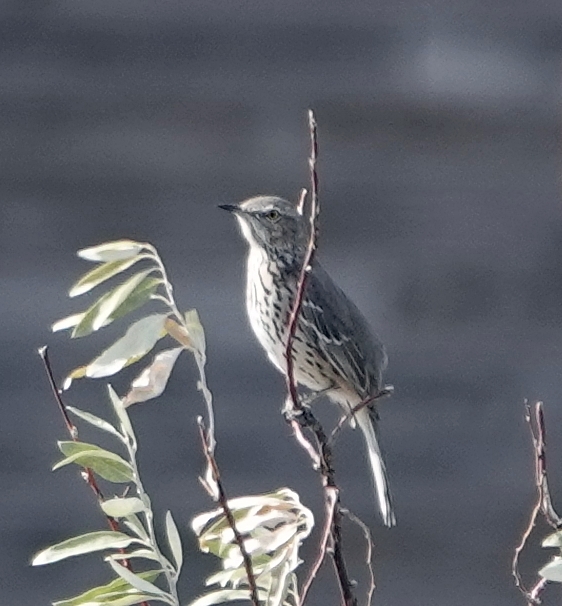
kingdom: Animalia
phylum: Chordata
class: Aves
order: Passeriformes
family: Mimidae
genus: Oreoscoptes
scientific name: Oreoscoptes montanus
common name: Sage thrasher
